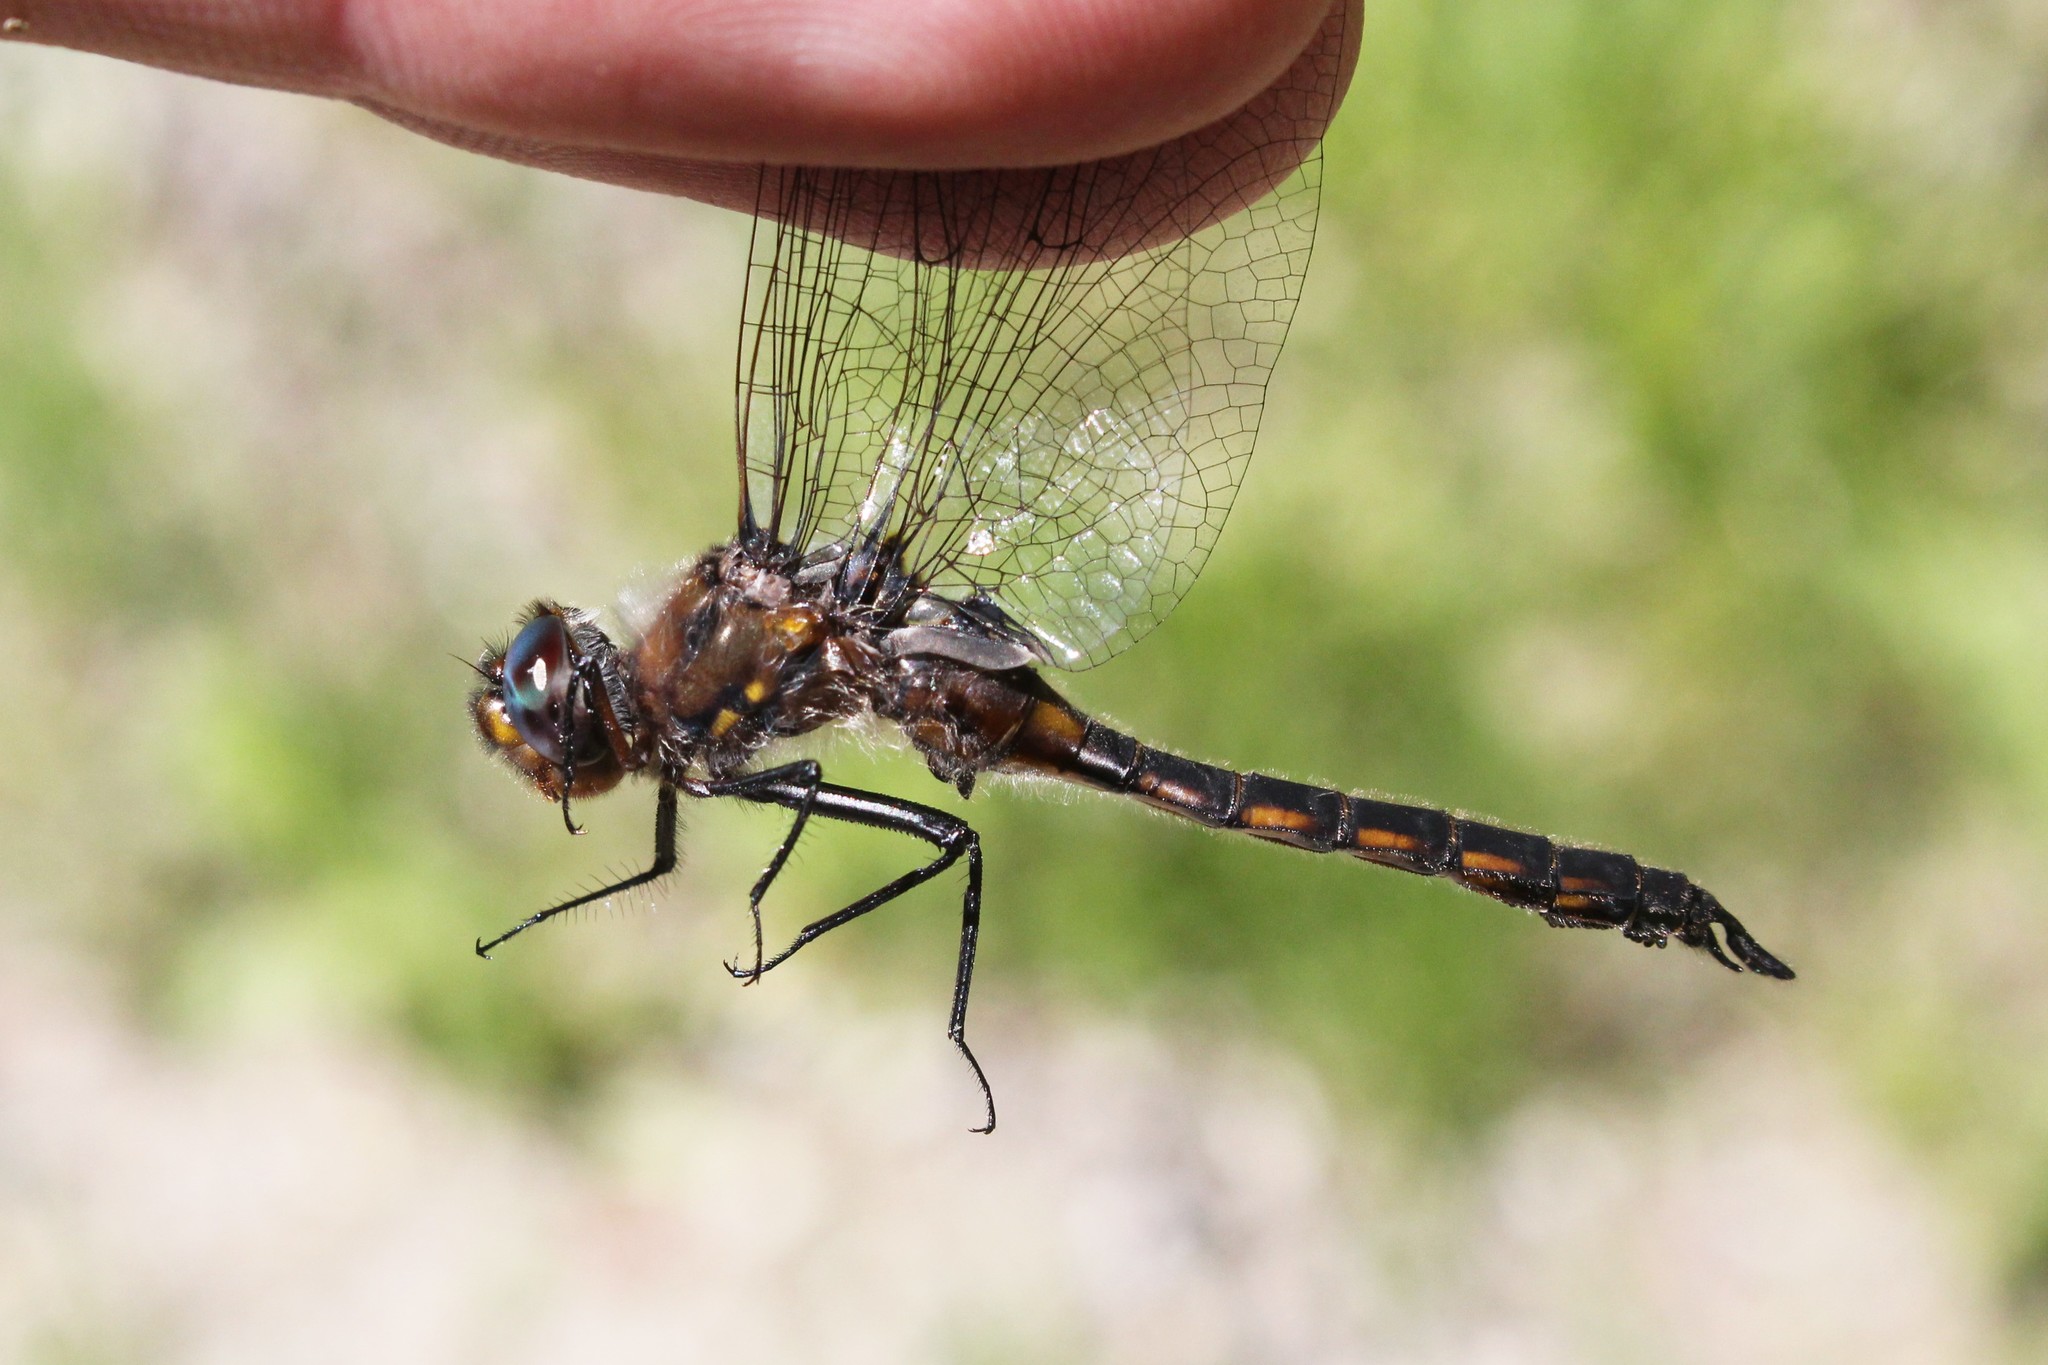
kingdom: Animalia
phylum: Arthropoda
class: Insecta
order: Odonata
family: Corduliidae
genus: Epitheca
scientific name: Epitheca cynosura
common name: Common baskettail
